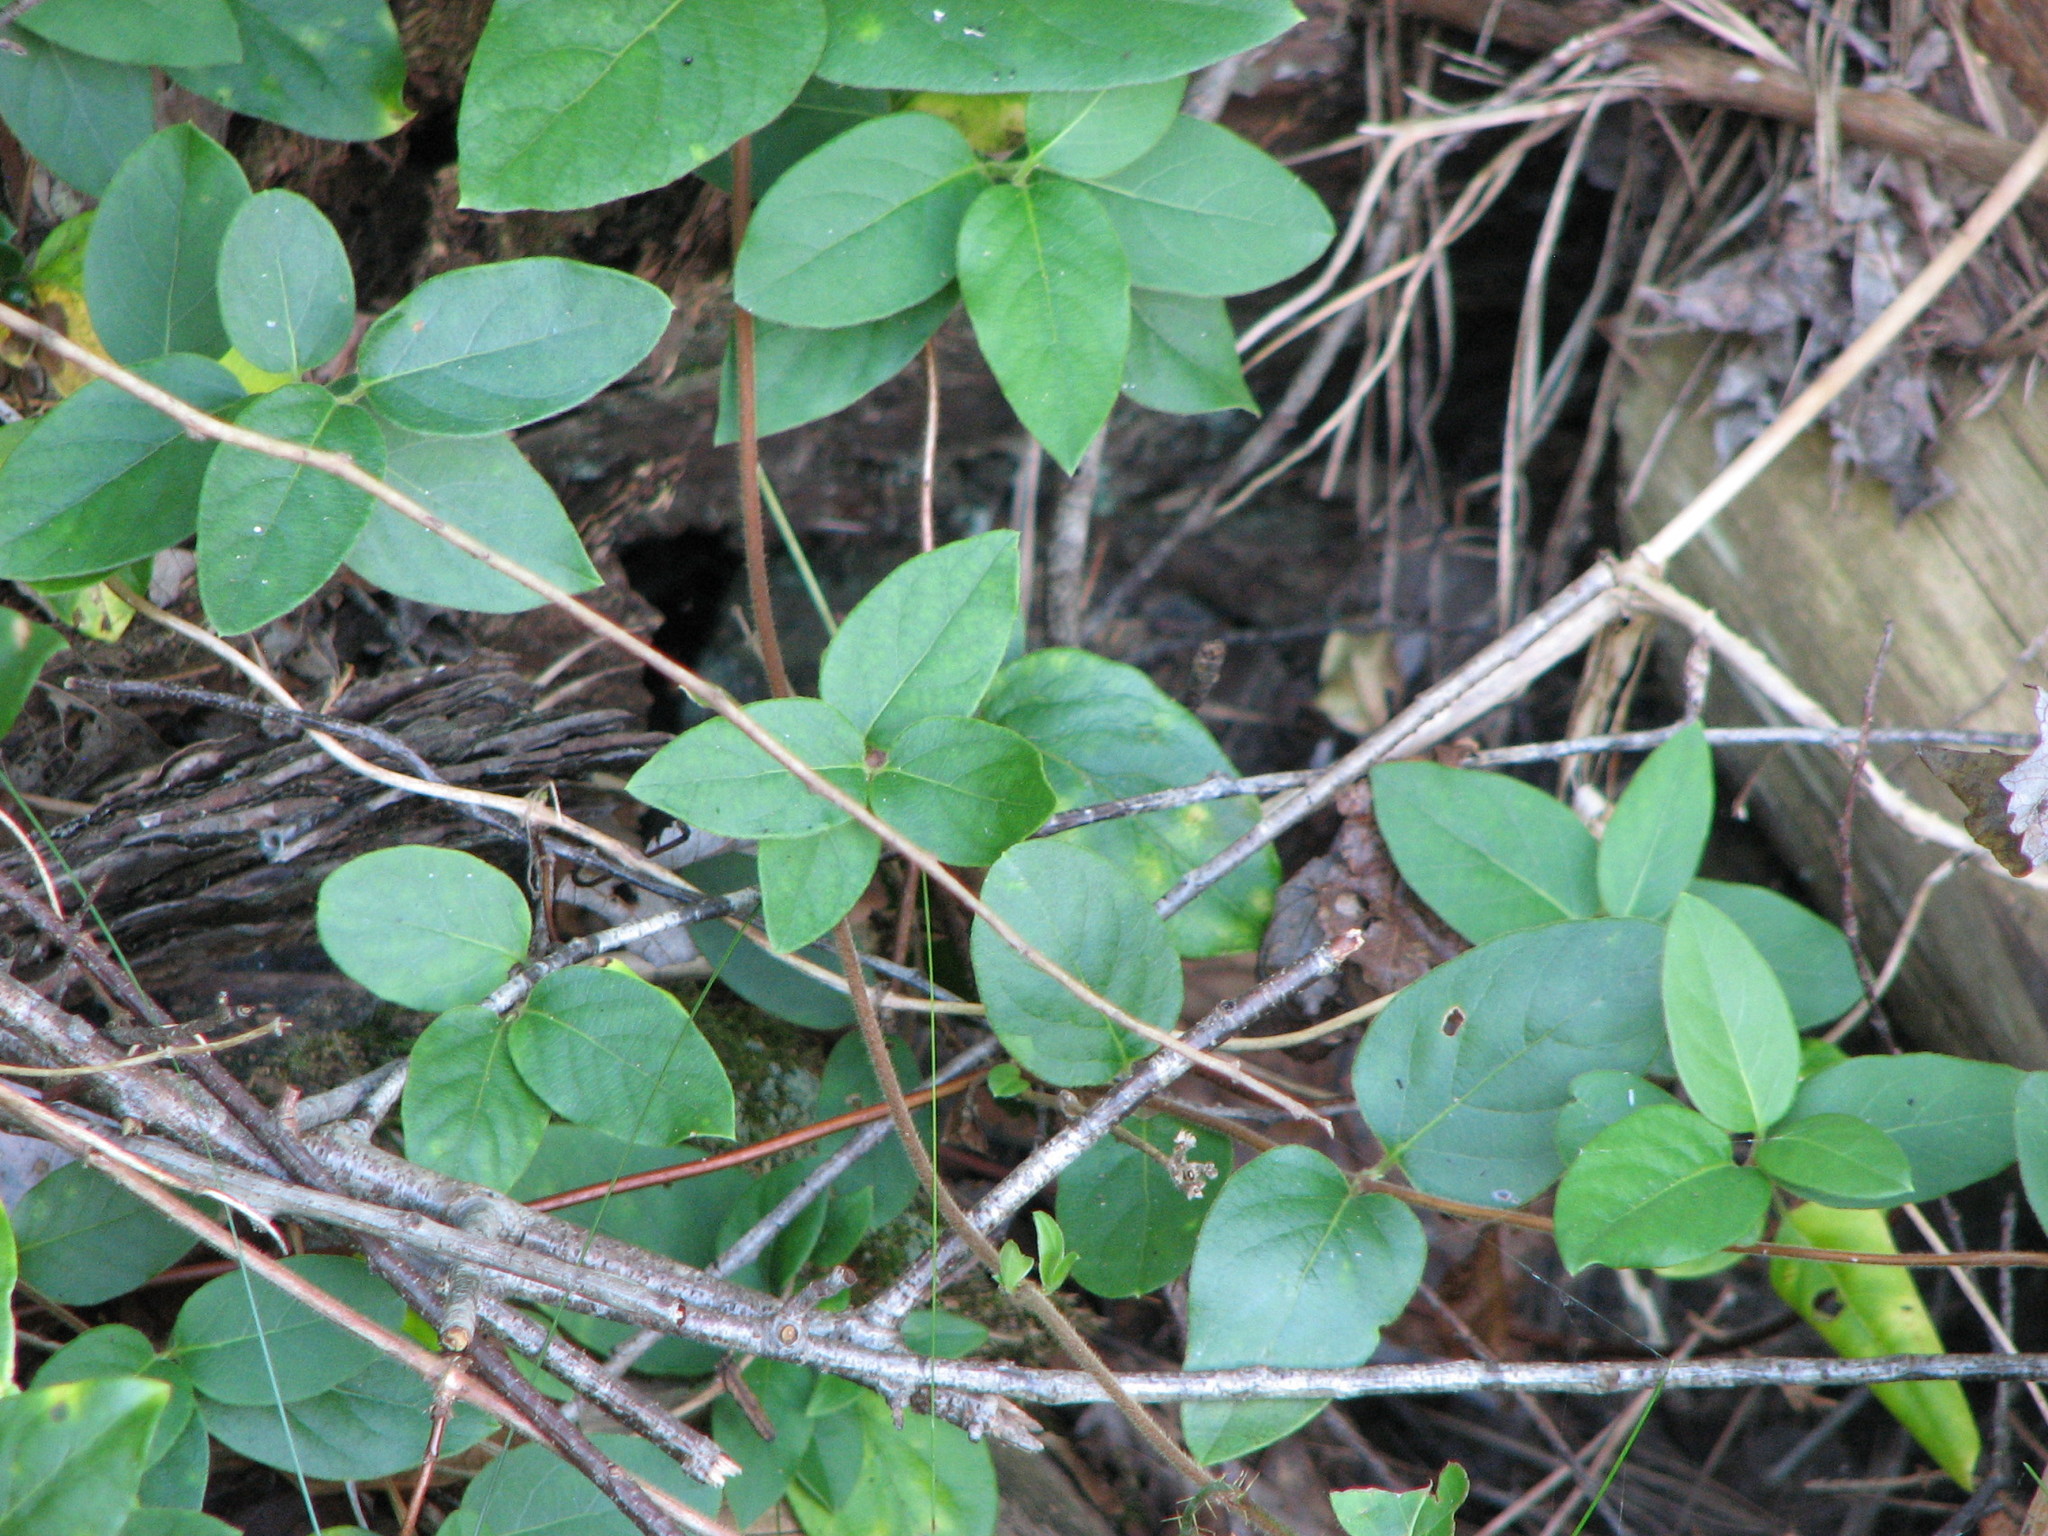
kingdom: Plantae
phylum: Tracheophyta
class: Magnoliopsida
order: Dipsacales
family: Caprifoliaceae
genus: Lonicera
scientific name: Lonicera japonica
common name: Japanese honeysuckle
